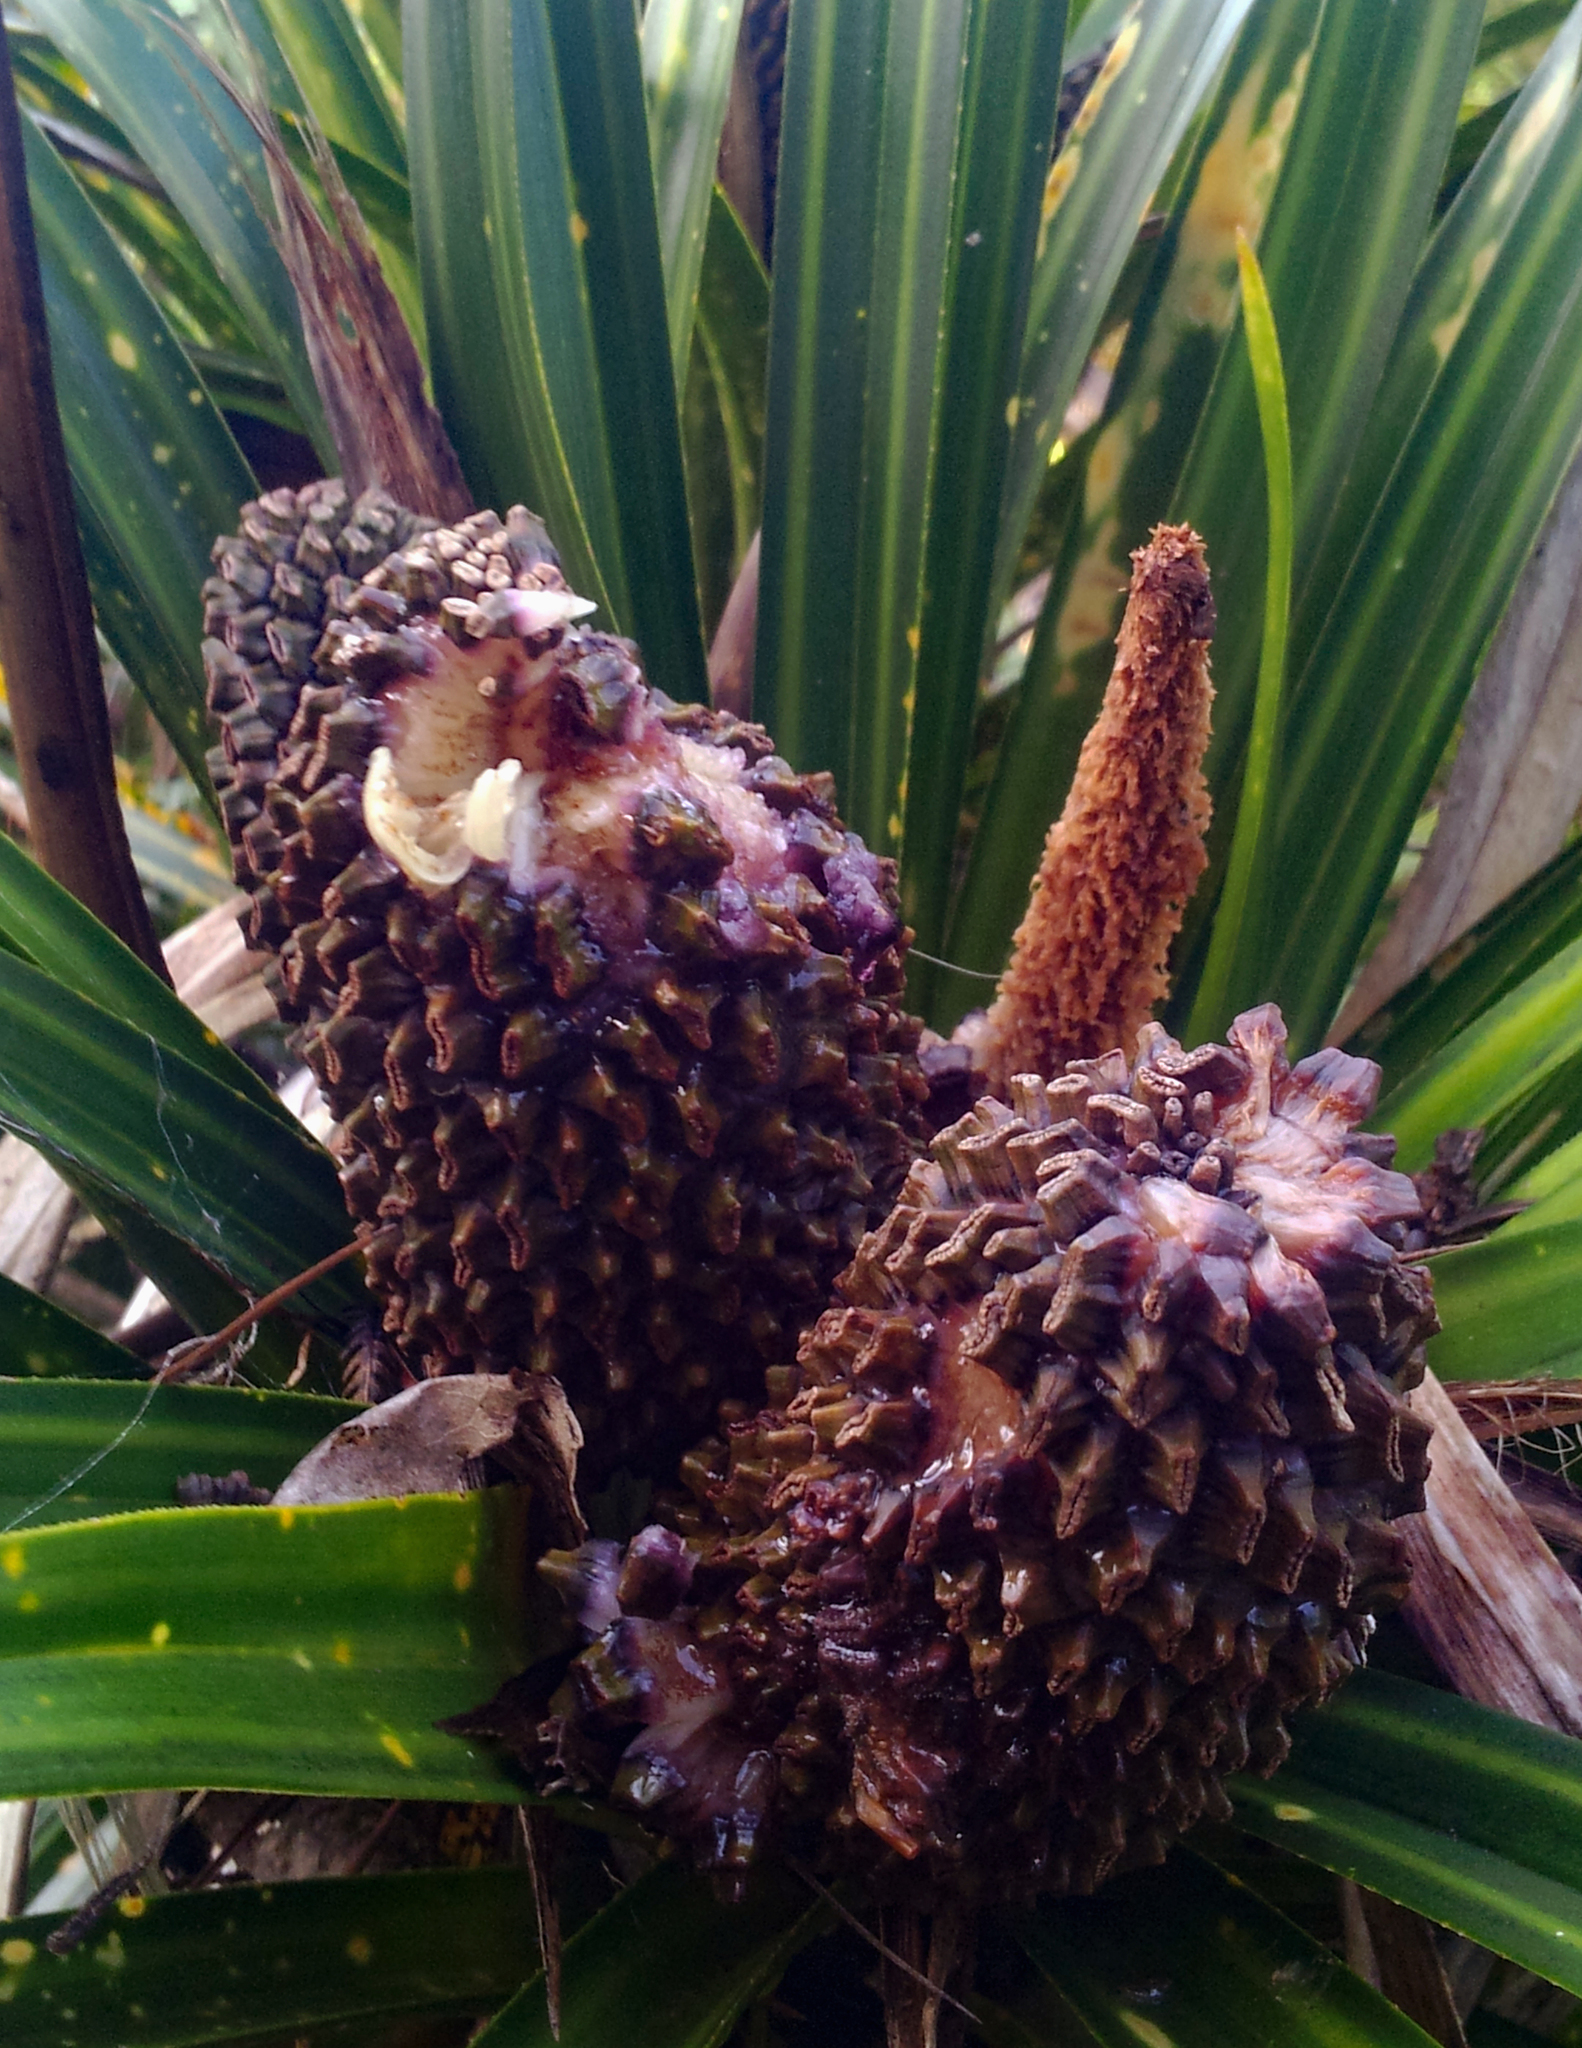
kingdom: Plantae
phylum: Tracheophyta
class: Liliopsida
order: Pandanales
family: Pandanaceae
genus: Freycinetia
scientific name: Freycinetia banksii
